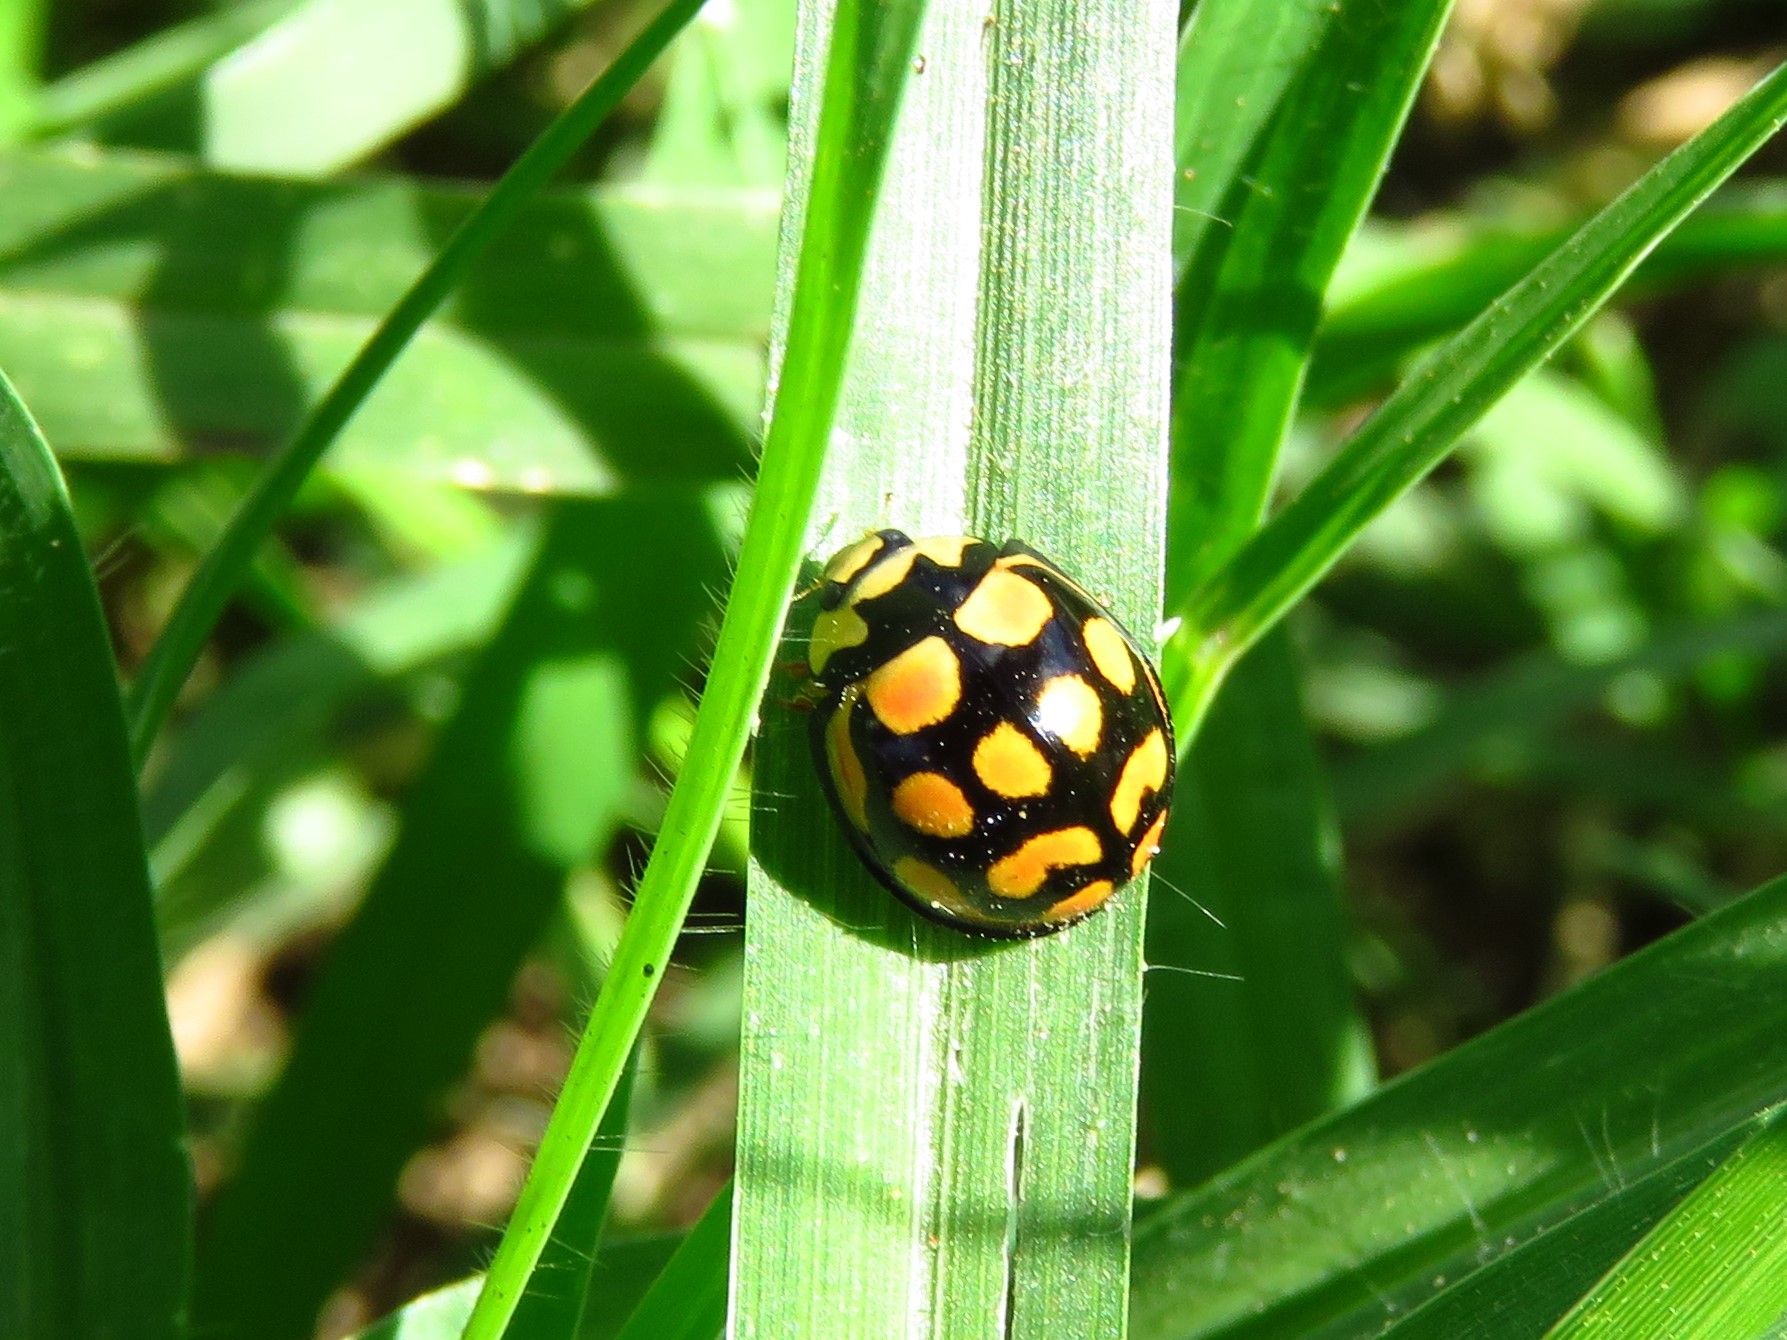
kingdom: Animalia
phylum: Arthropoda
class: Insecta
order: Coleoptera
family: Coccinellidae
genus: Cheilomenes
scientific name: Cheilomenes lunata
